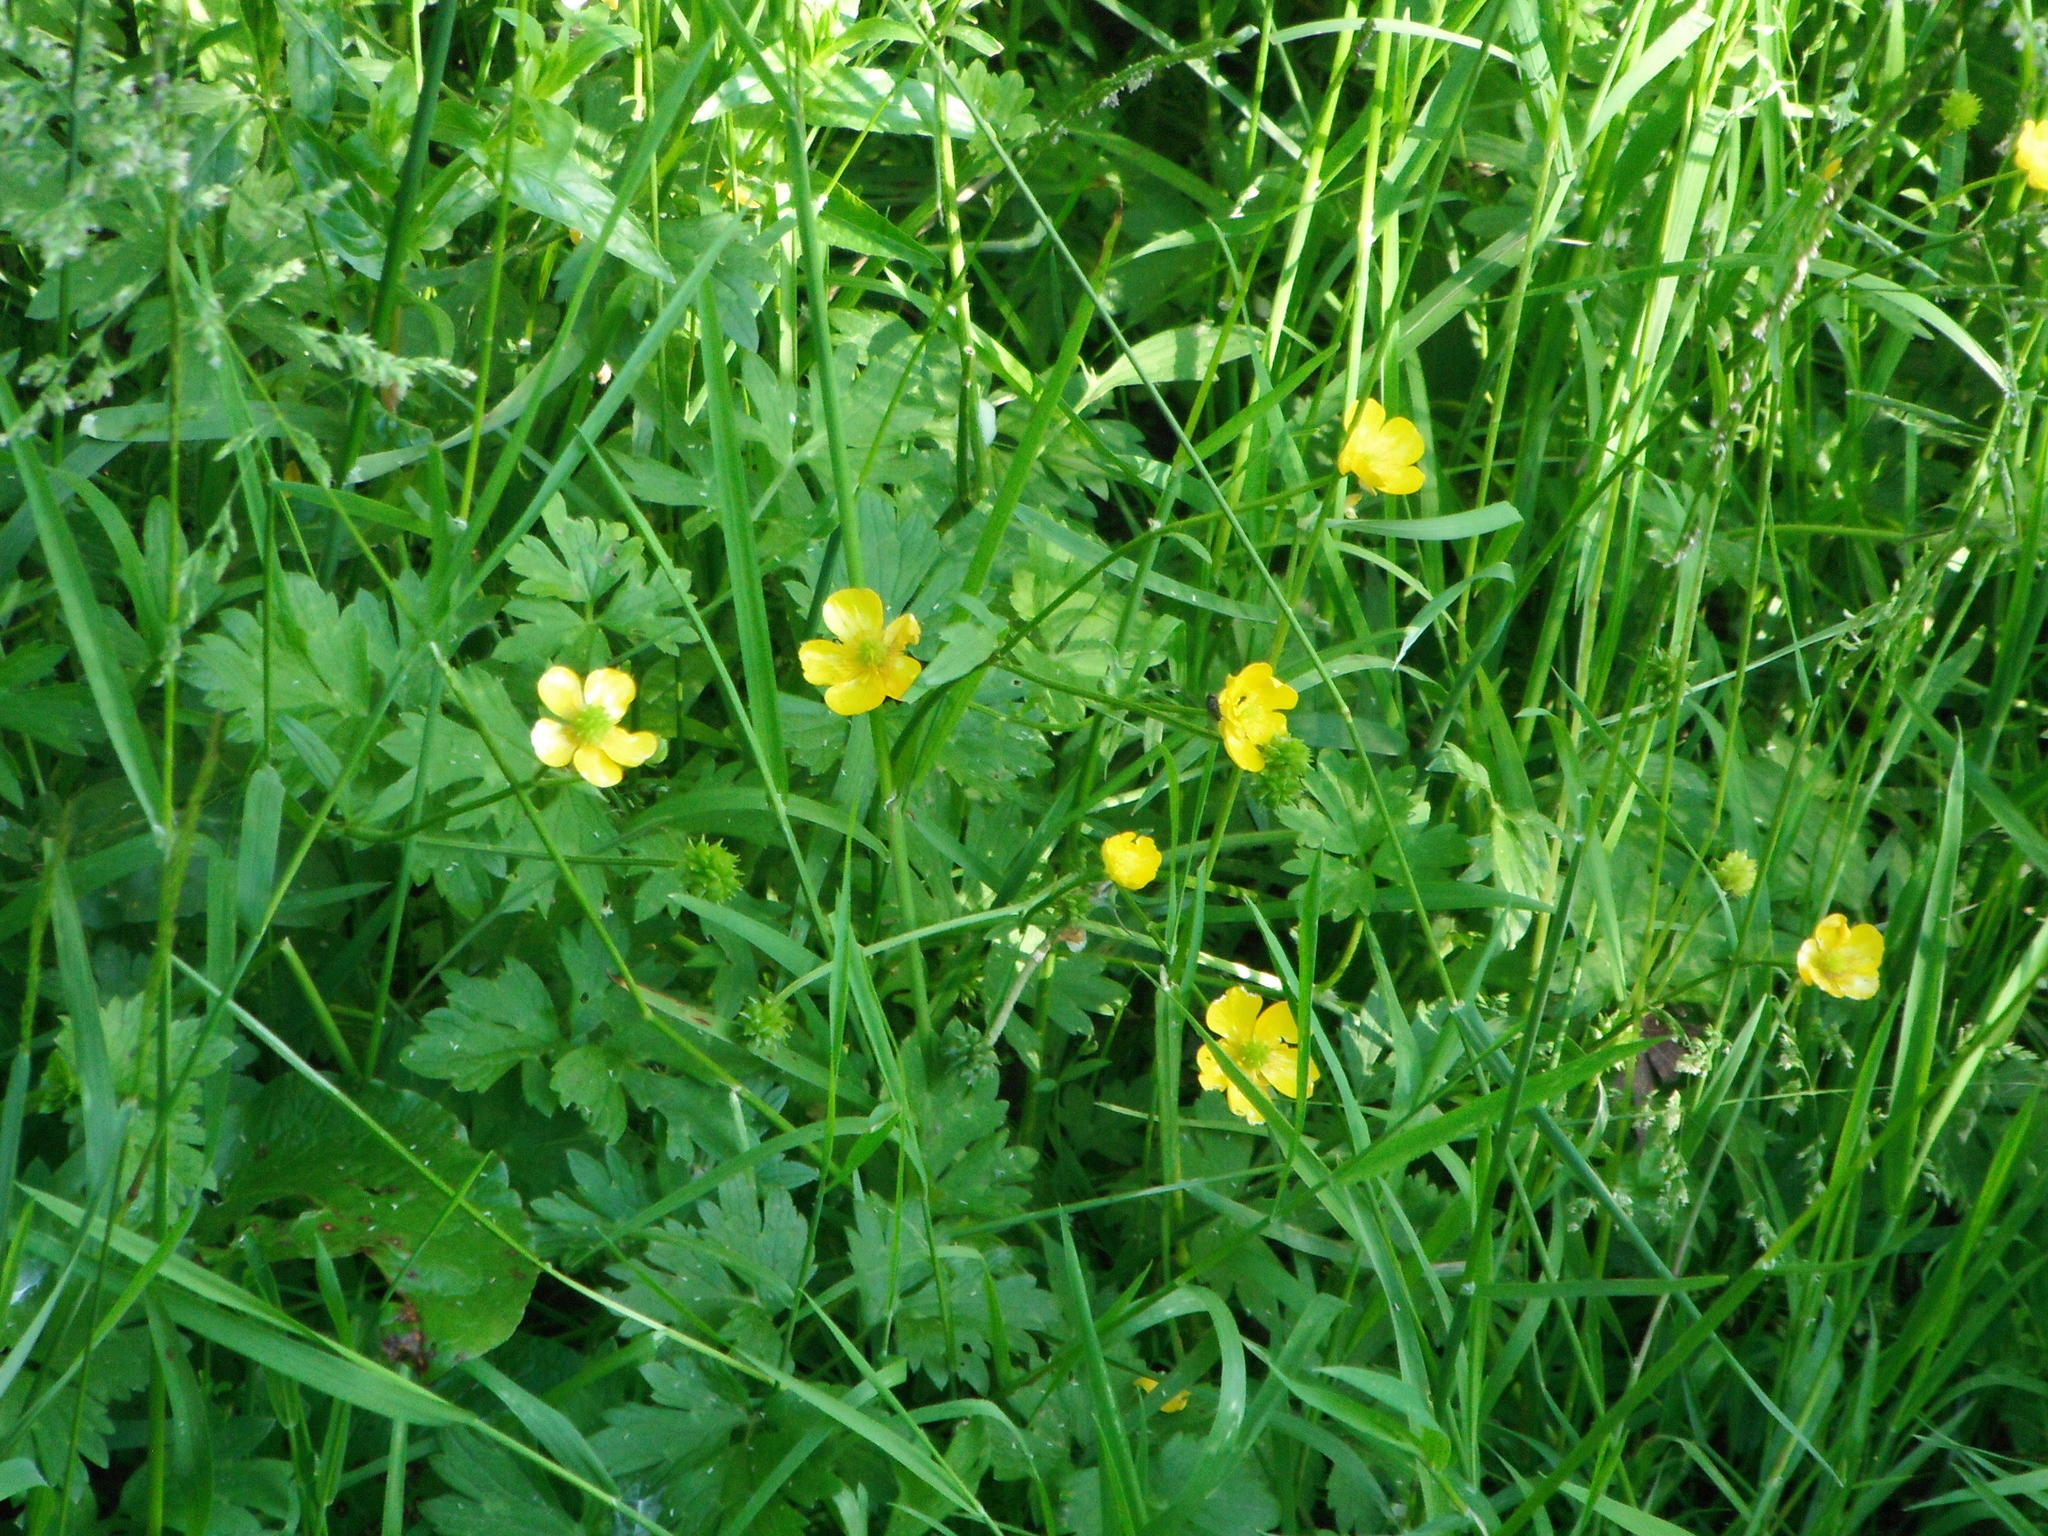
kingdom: Plantae
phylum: Tracheophyta
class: Magnoliopsida
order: Ranunculales
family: Ranunculaceae
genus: Ranunculus
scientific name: Ranunculus repens
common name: Creeping buttercup
